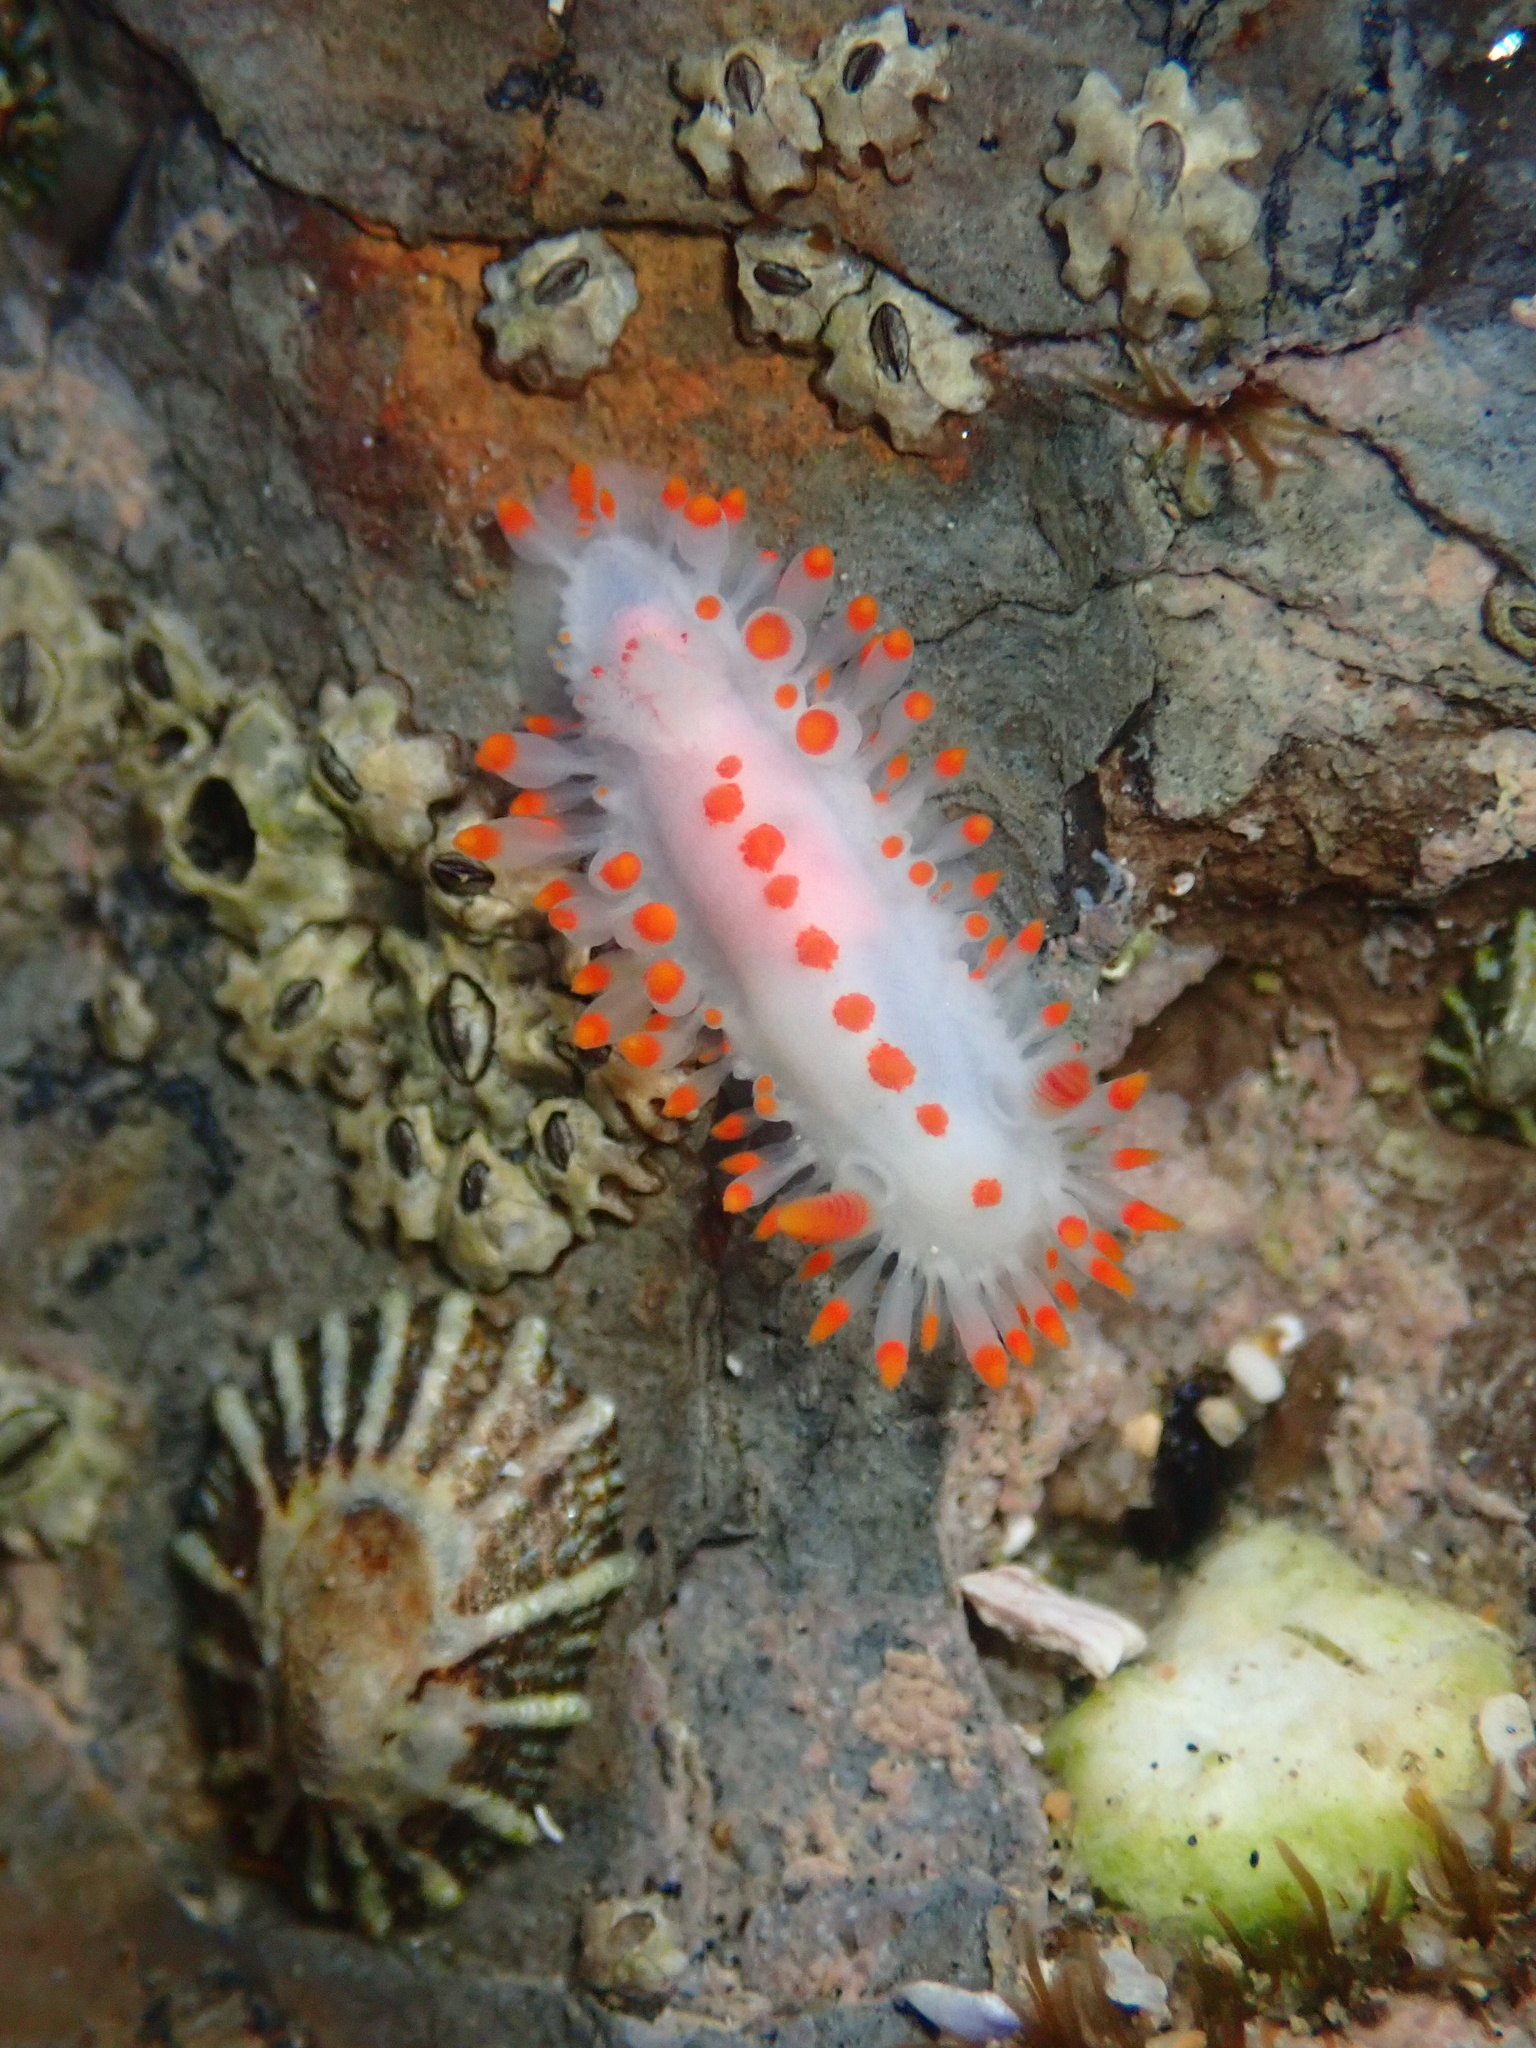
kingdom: Animalia
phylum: Mollusca
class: Gastropoda
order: Nudibranchia
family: Polyceridae
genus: Limacia
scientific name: Limacia mcdonaldi
